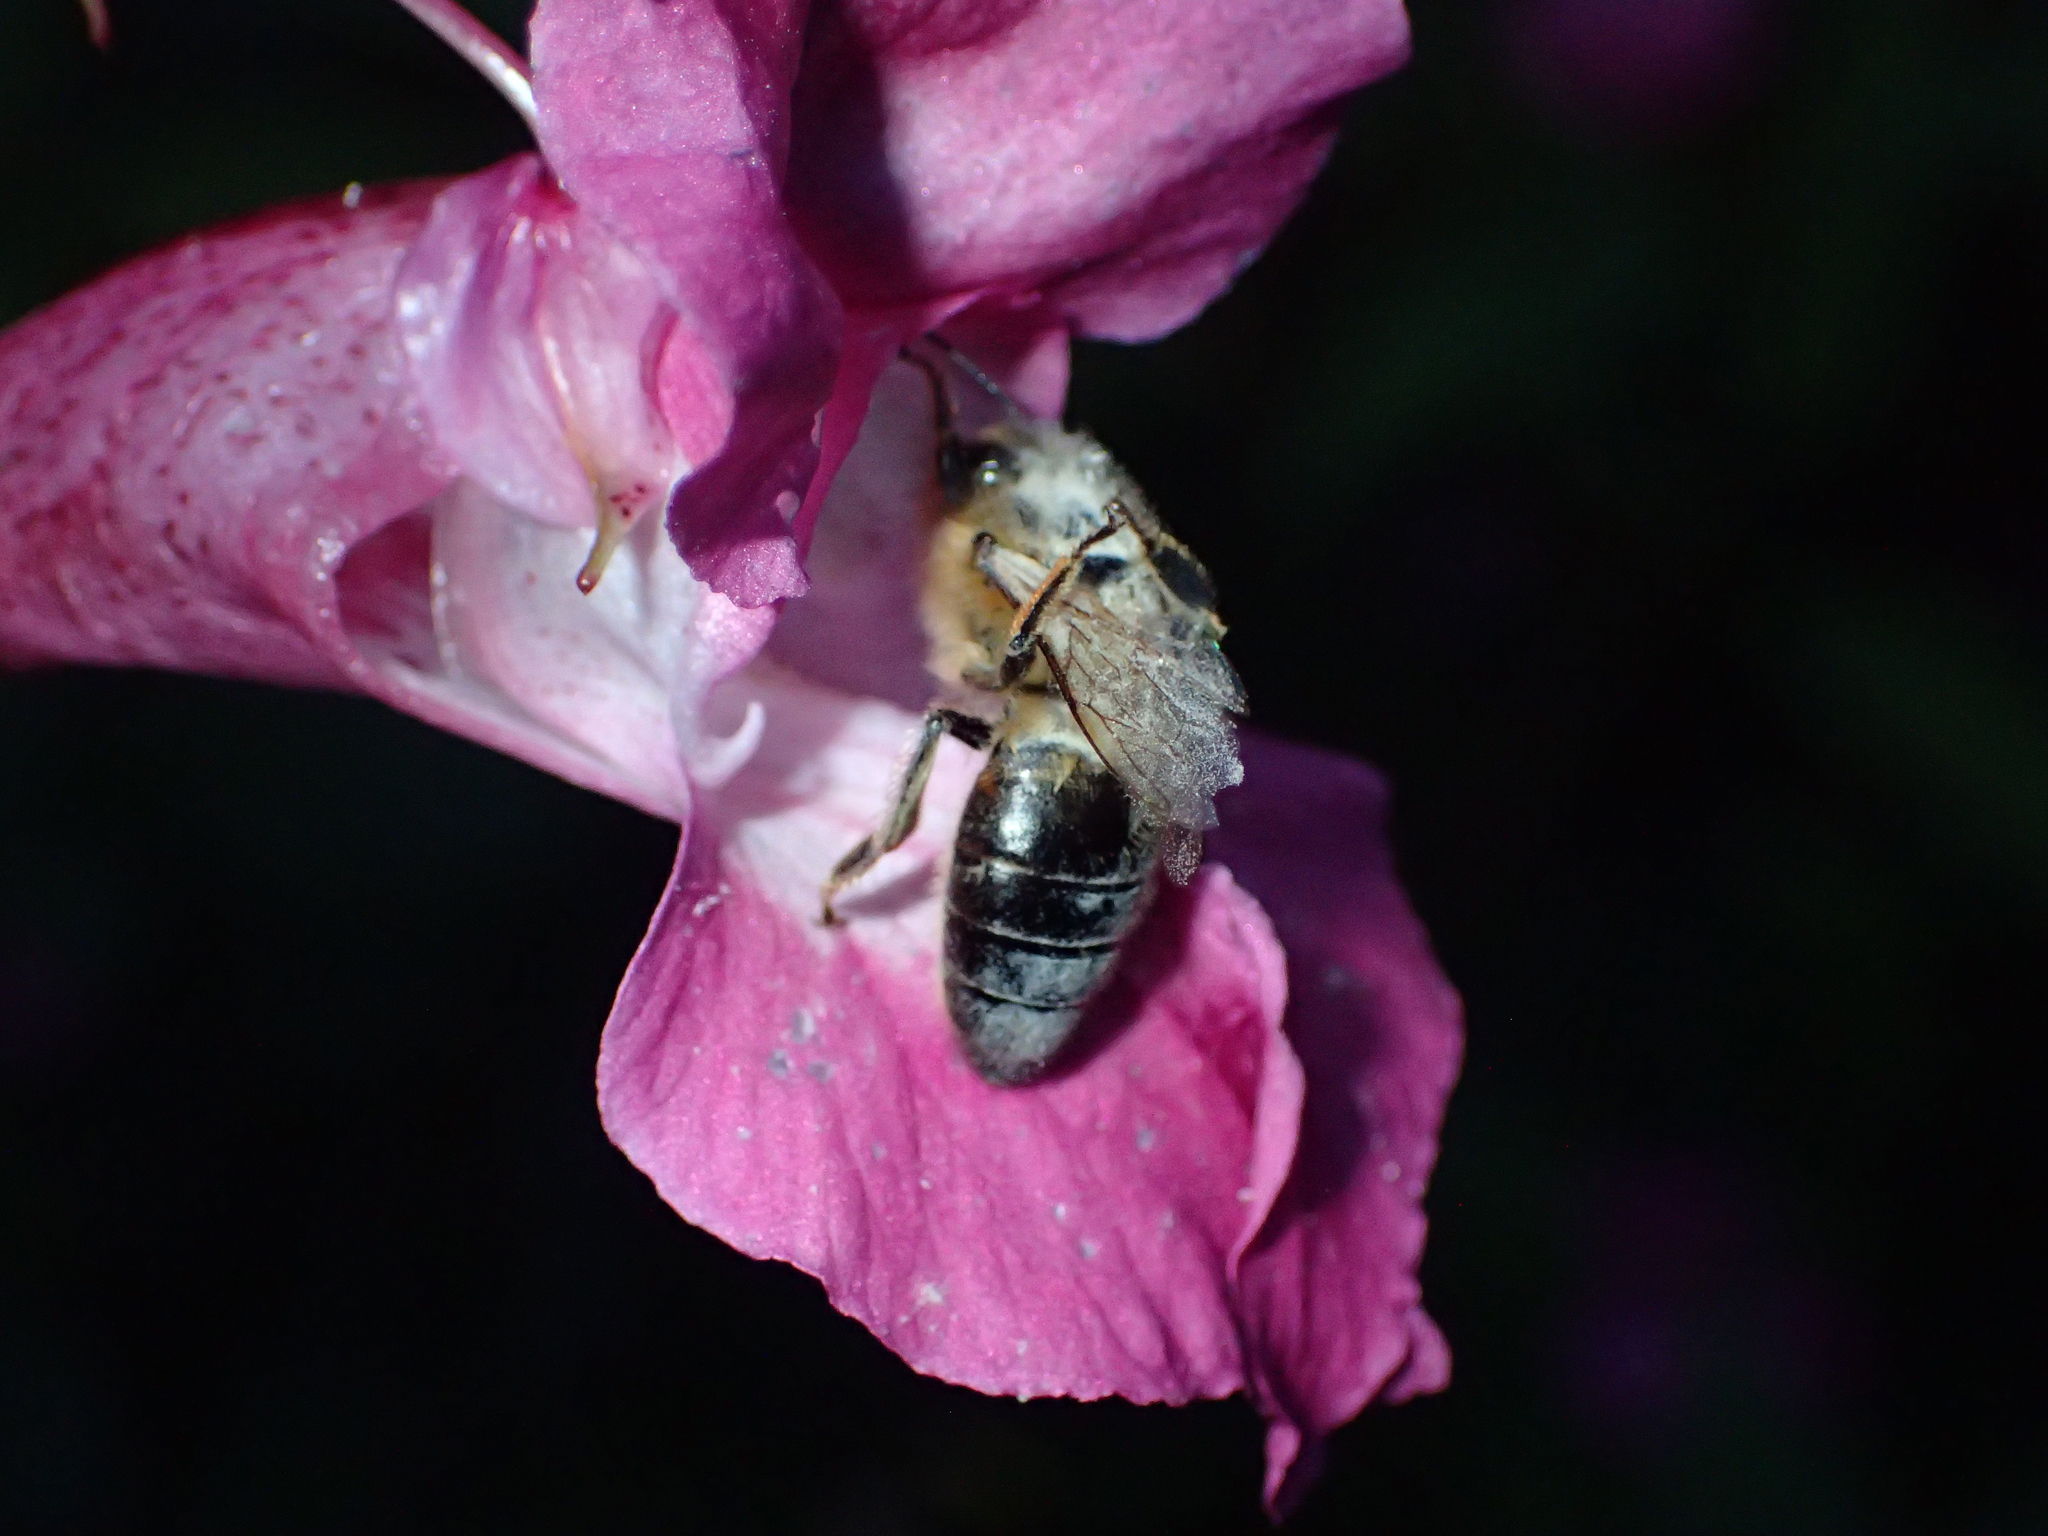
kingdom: Animalia
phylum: Arthropoda
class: Insecta
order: Hymenoptera
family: Apidae
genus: Apis
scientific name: Apis mellifera
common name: Honey bee
